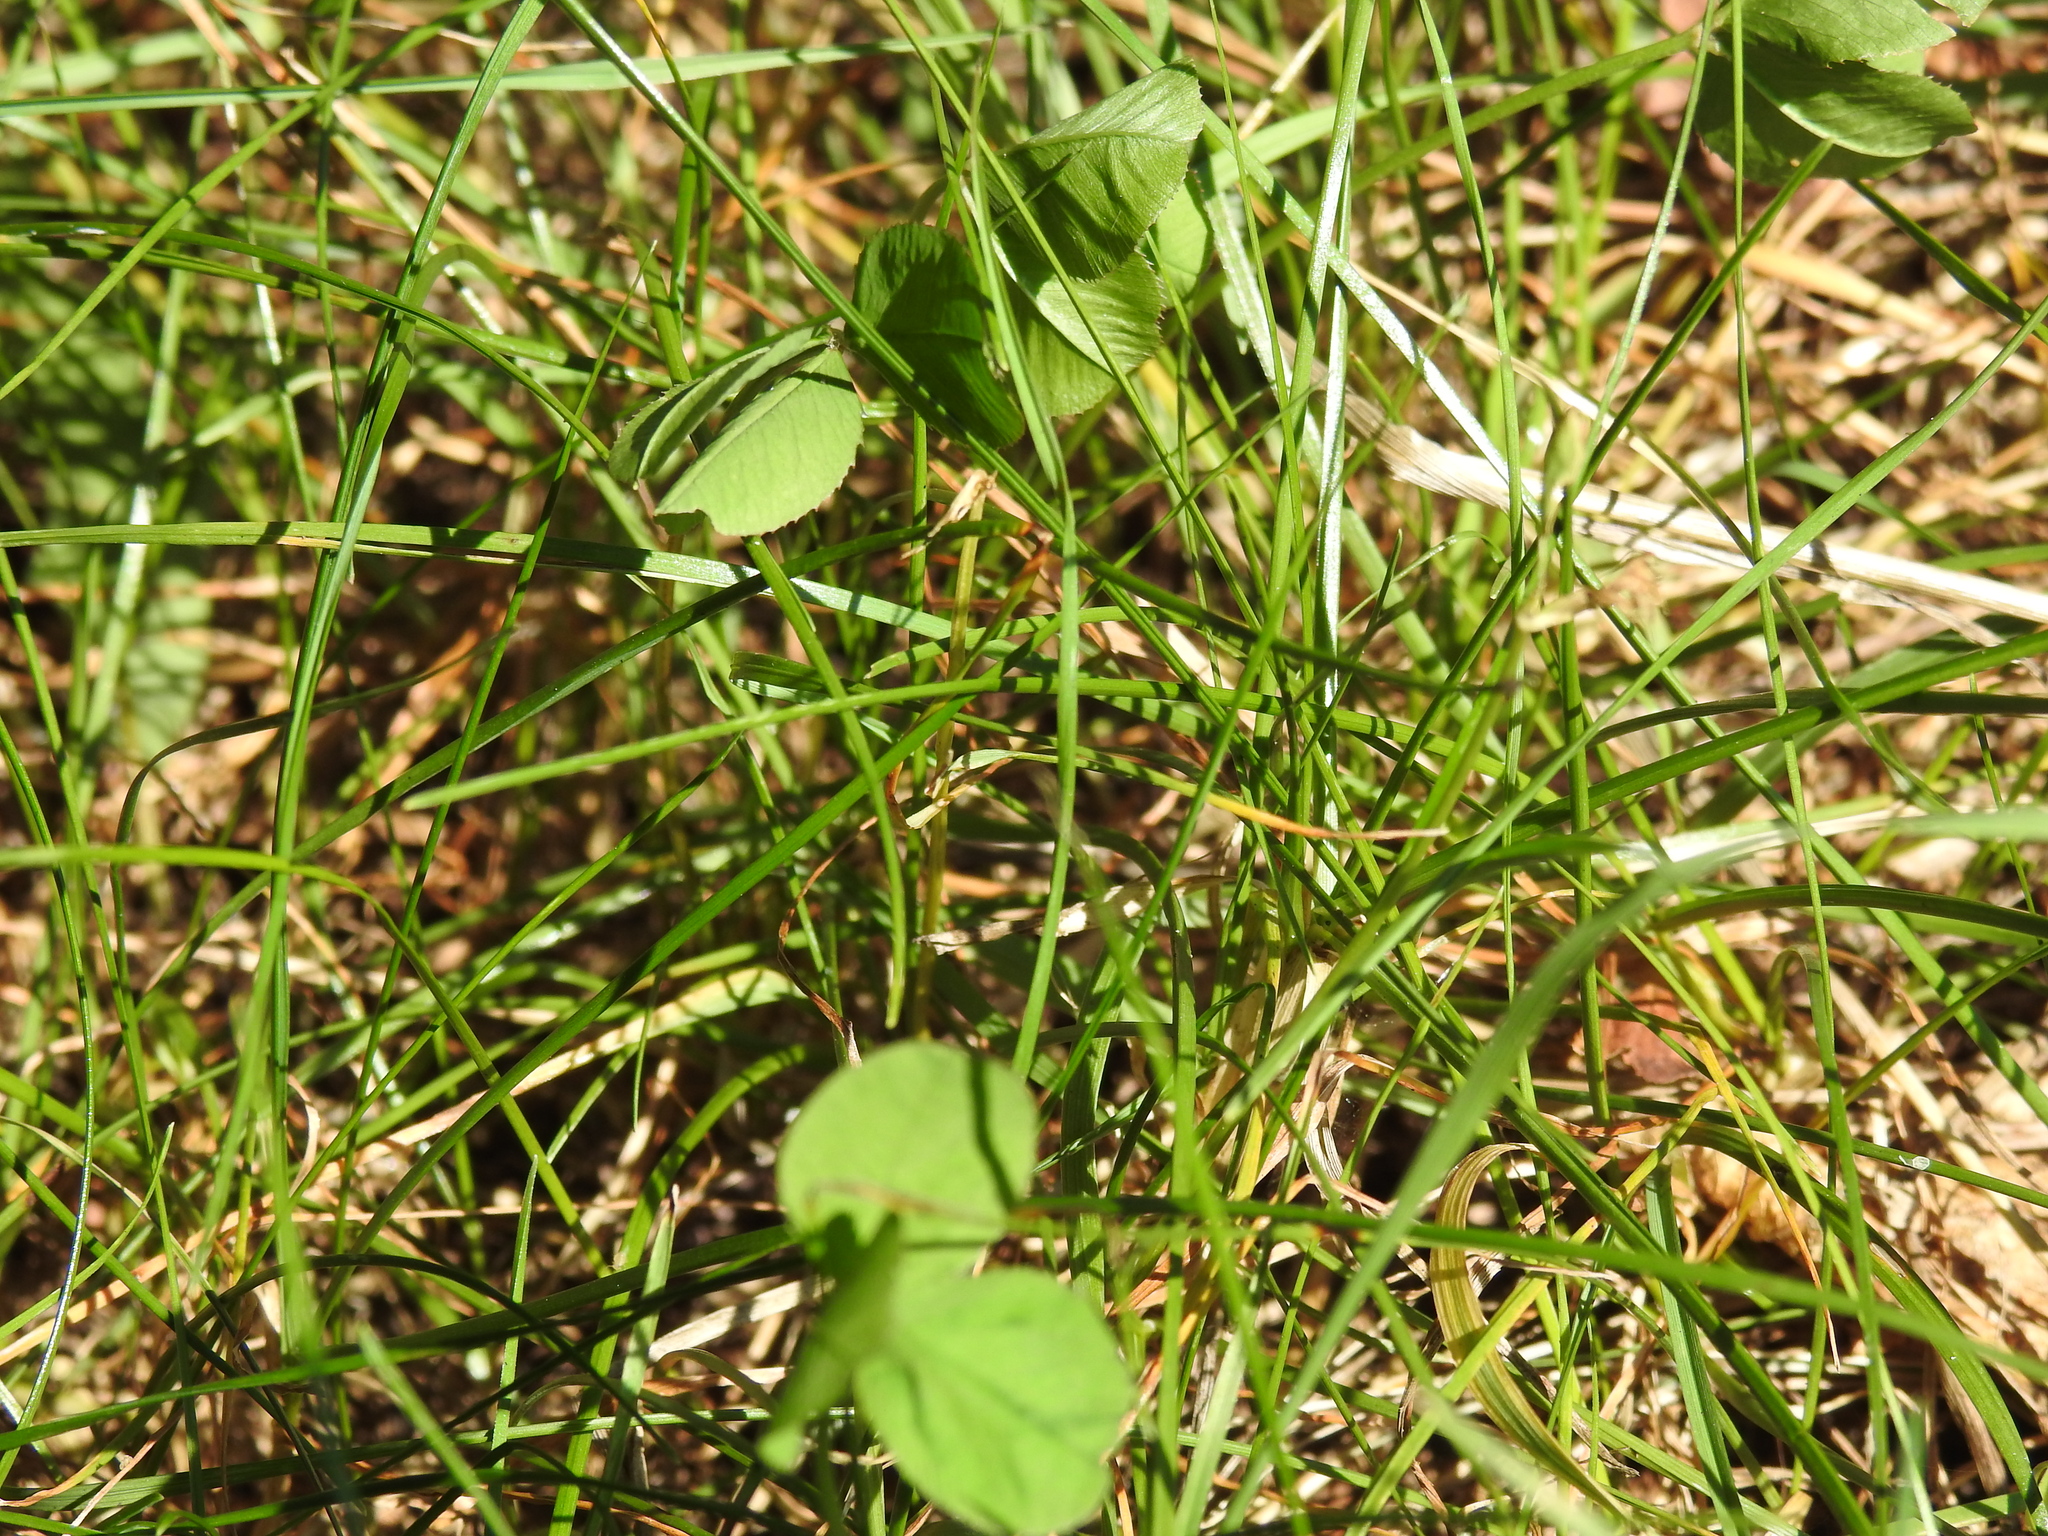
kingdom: Plantae
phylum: Tracheophyta
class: Magnoliopsida
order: Fabales
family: Fabaceae
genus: Trifolium
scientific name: Trifolium repens
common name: White clover
